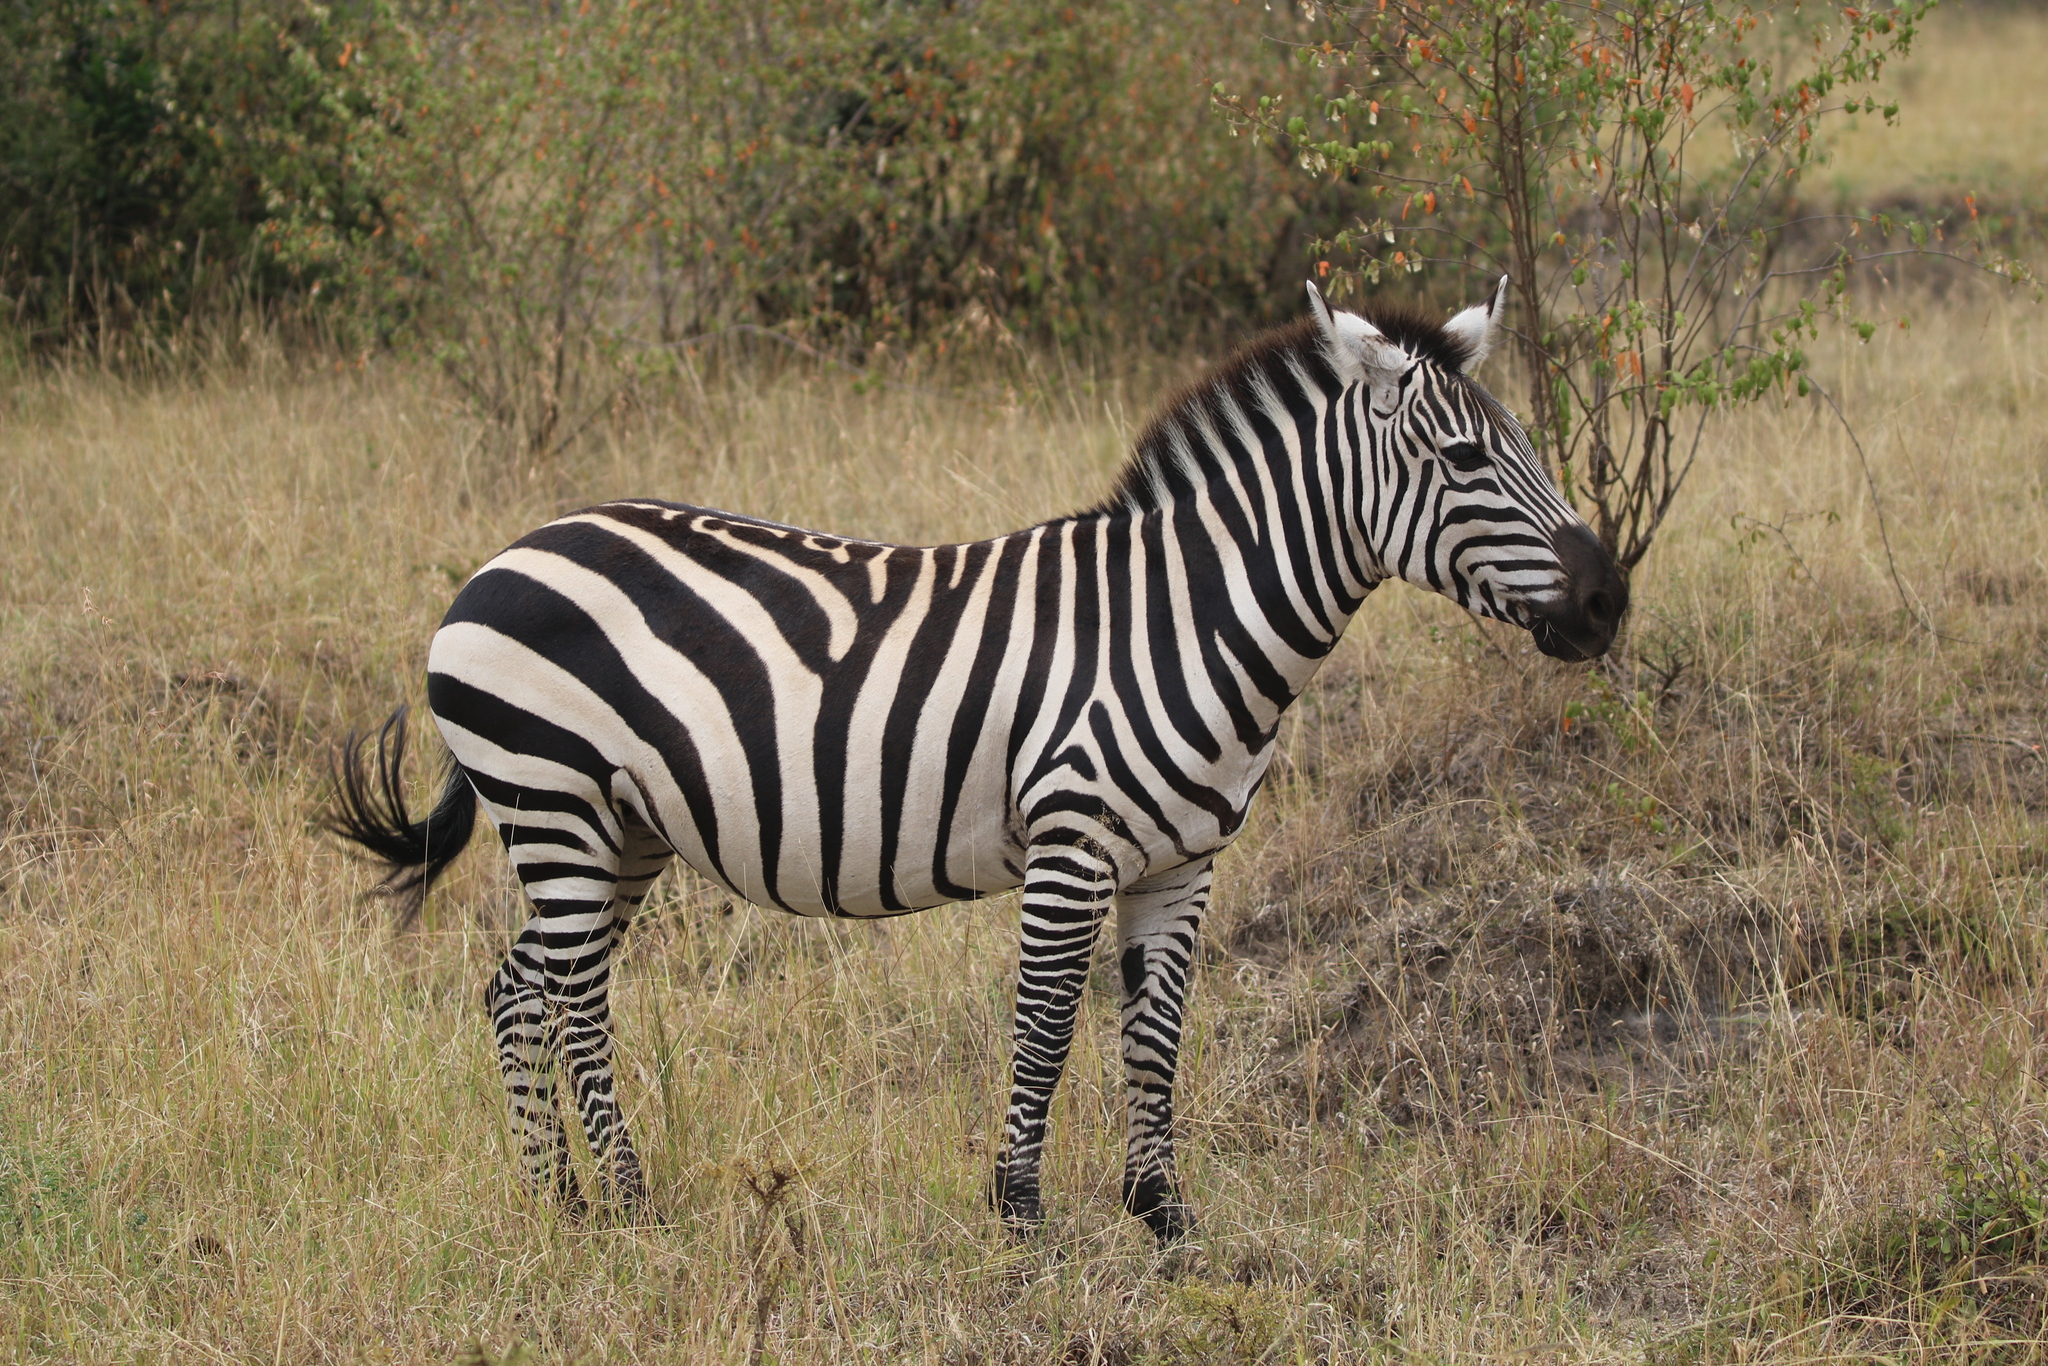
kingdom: Animalia
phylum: Chordata
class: Mammalia
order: Perissodactyla
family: Equidae
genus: Equus
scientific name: Equus quagga
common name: Plains zebra
